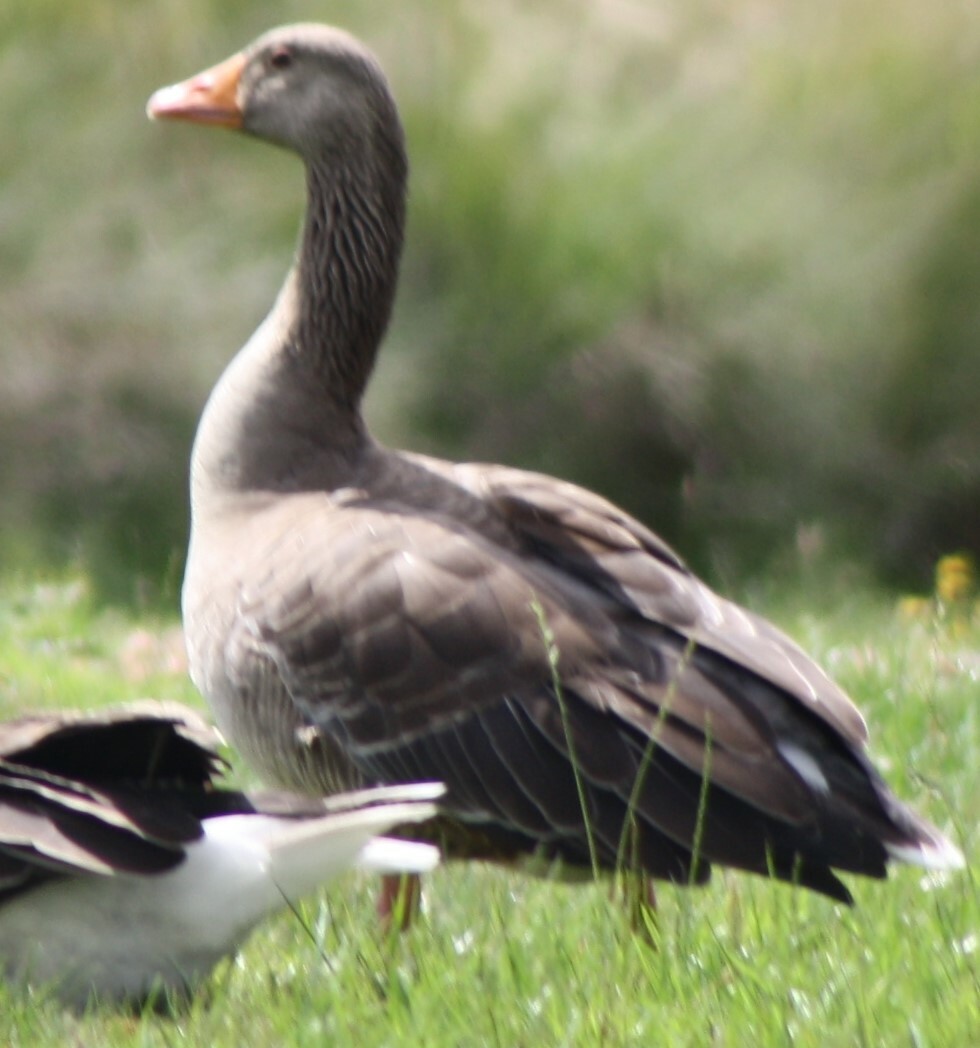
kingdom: Animalia
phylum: Chordata
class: Aves
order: Anseriformes
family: Anatidae
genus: Anser
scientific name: Anser anser
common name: Greylag goose
